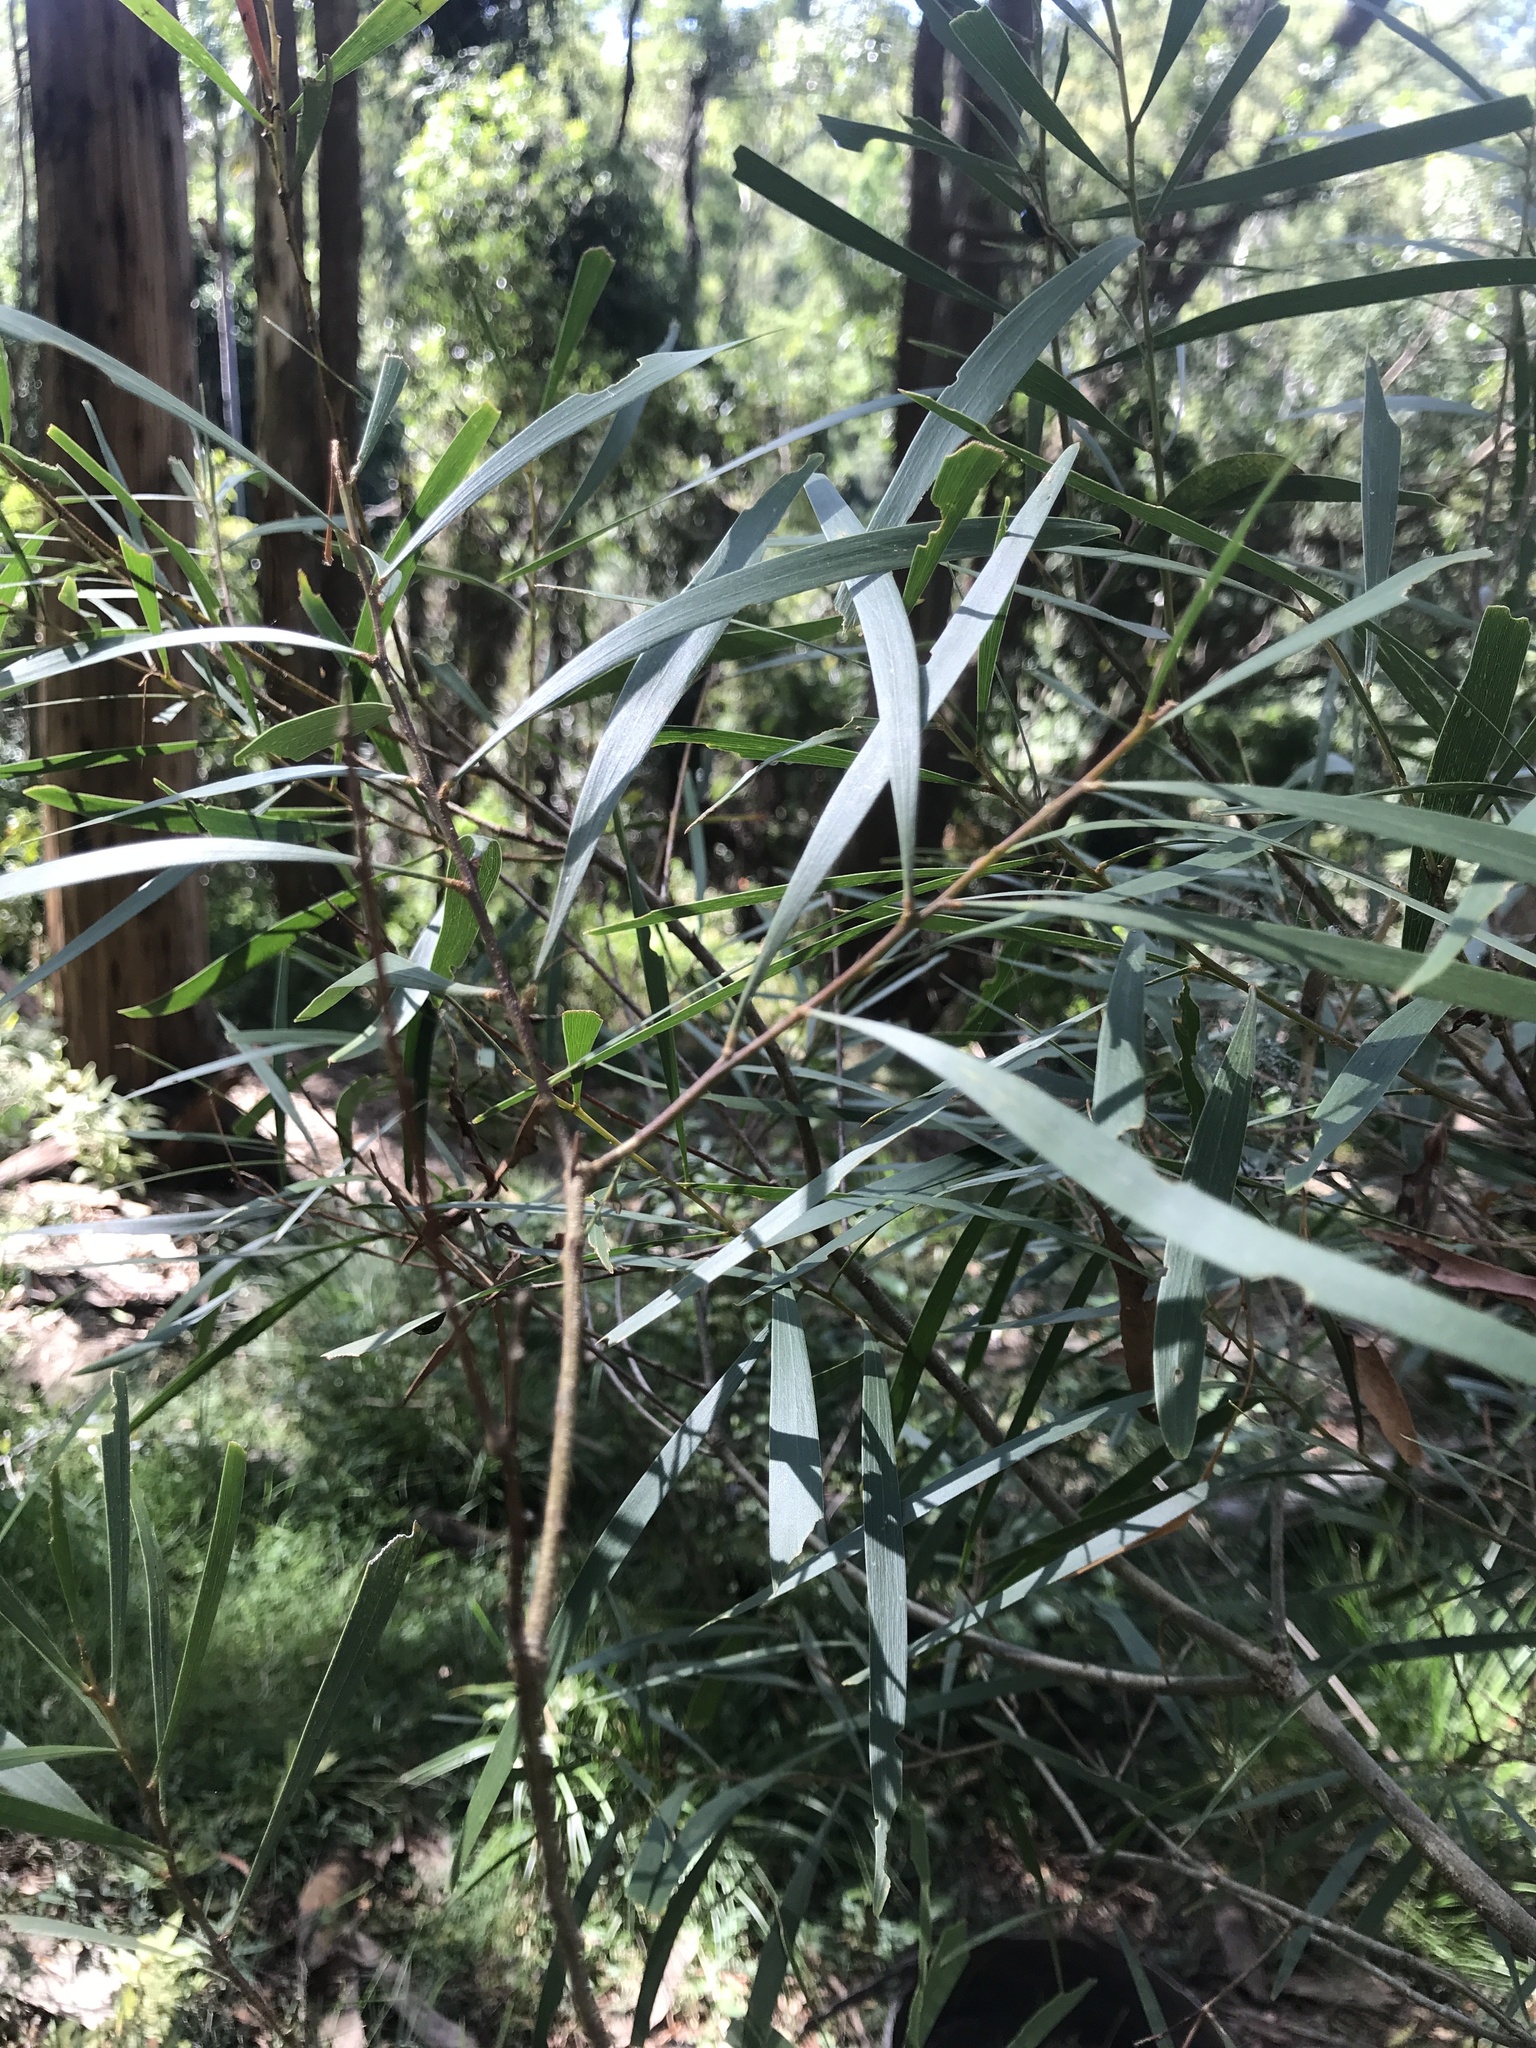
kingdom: Plantae
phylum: Tracheophyta
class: Magnoliopsida
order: Fabales
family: Fabaceae
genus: Acacia
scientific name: Acacia maidenii
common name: Maiden's wattle
